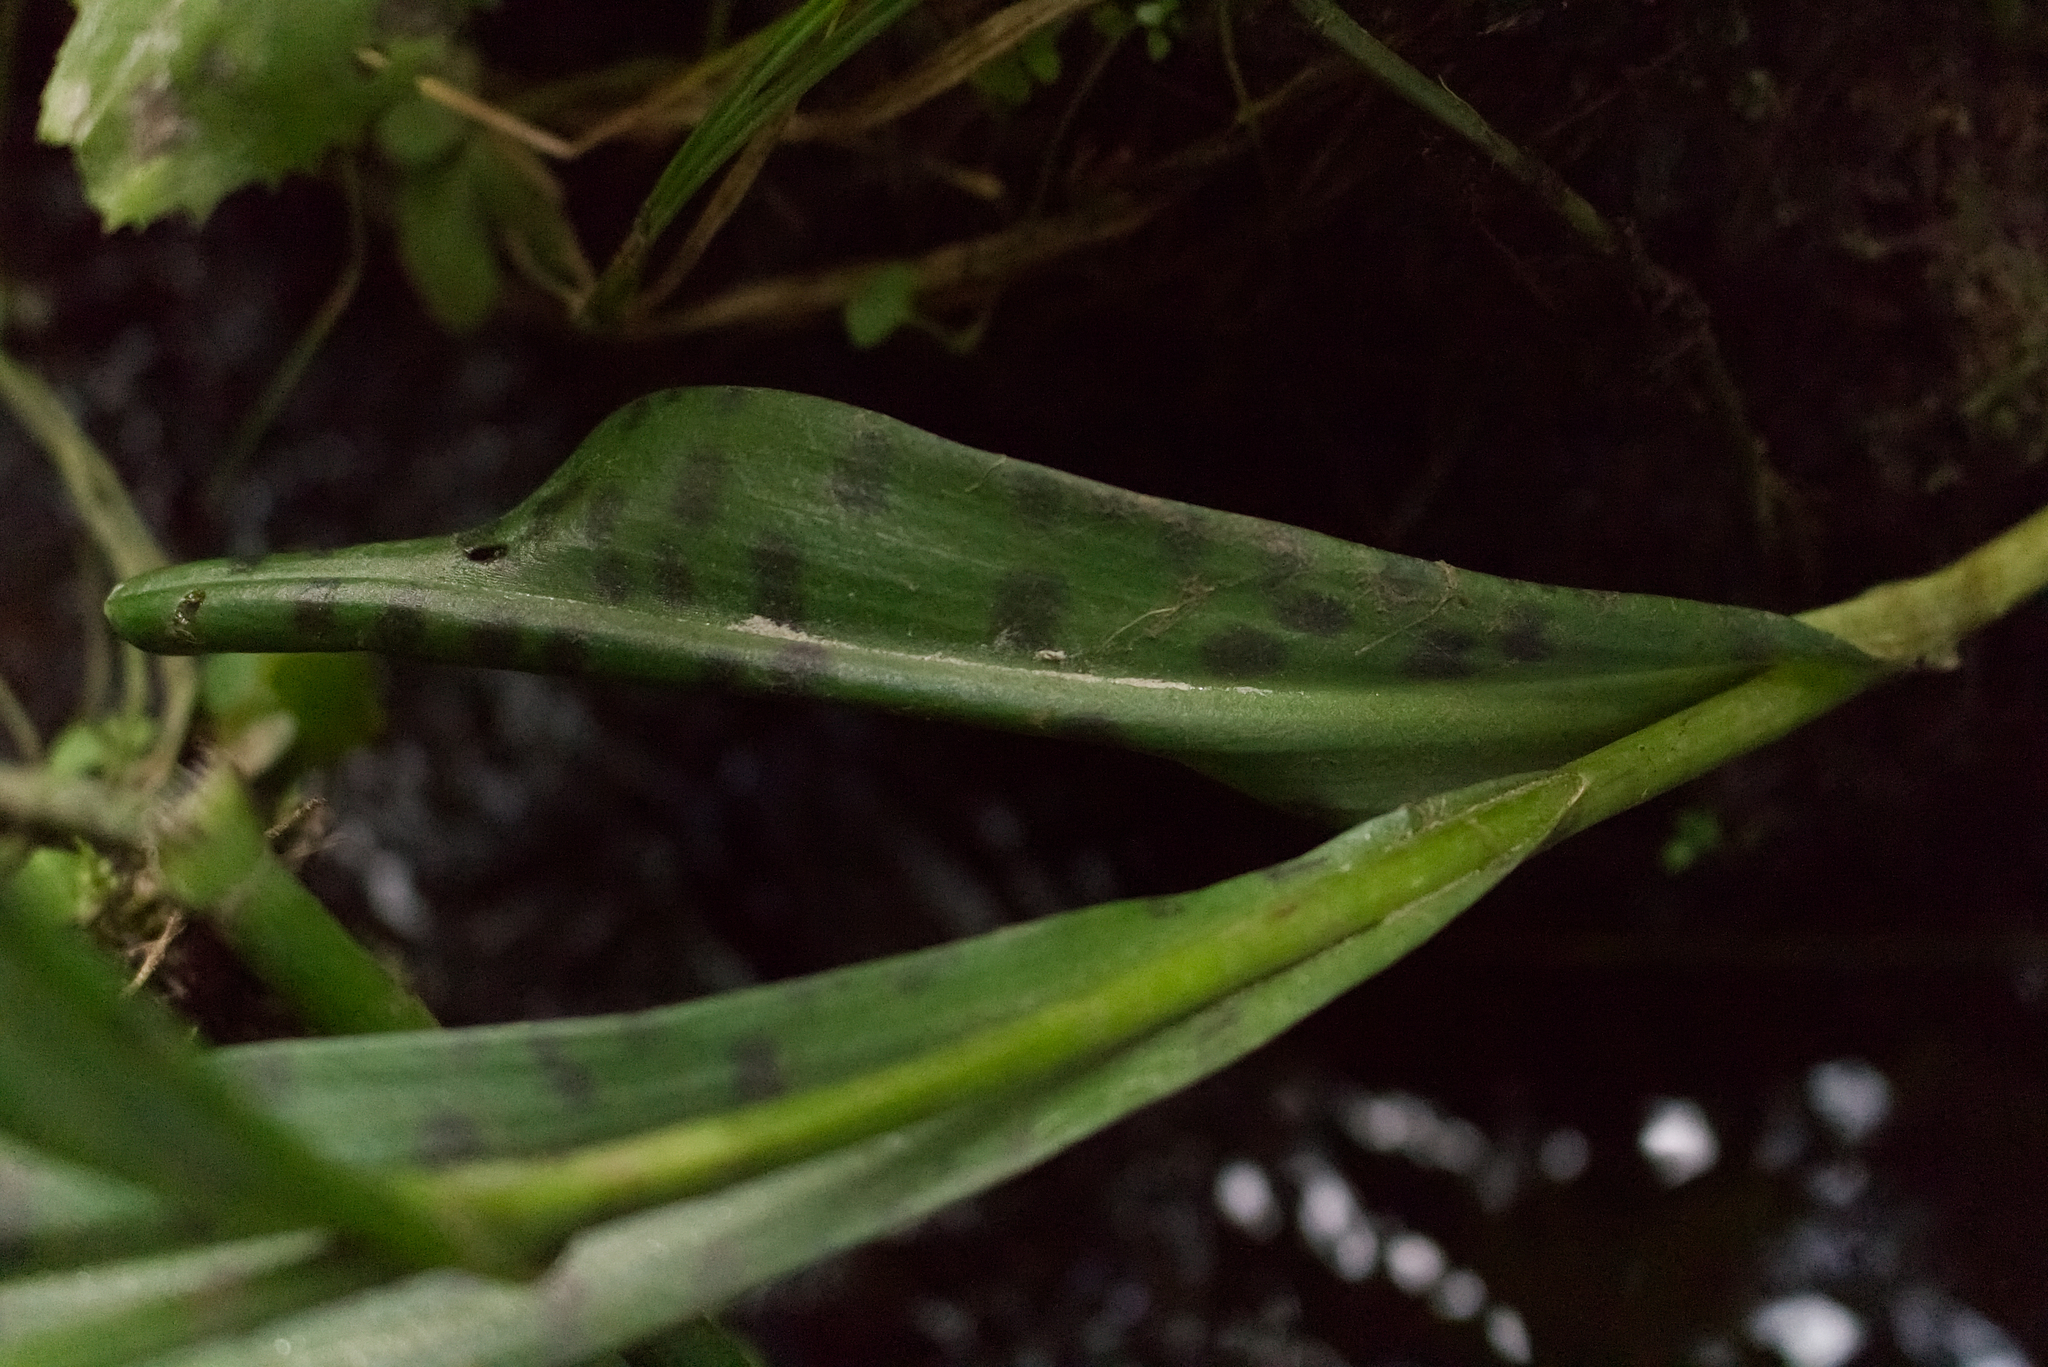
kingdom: Plantae
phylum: Tracheophyta
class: Liliopsida
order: Asparagales
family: Orchidaceae
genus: Dactylorhiza
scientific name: Dactylorhiza maculata
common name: Heath spotted-orchid
